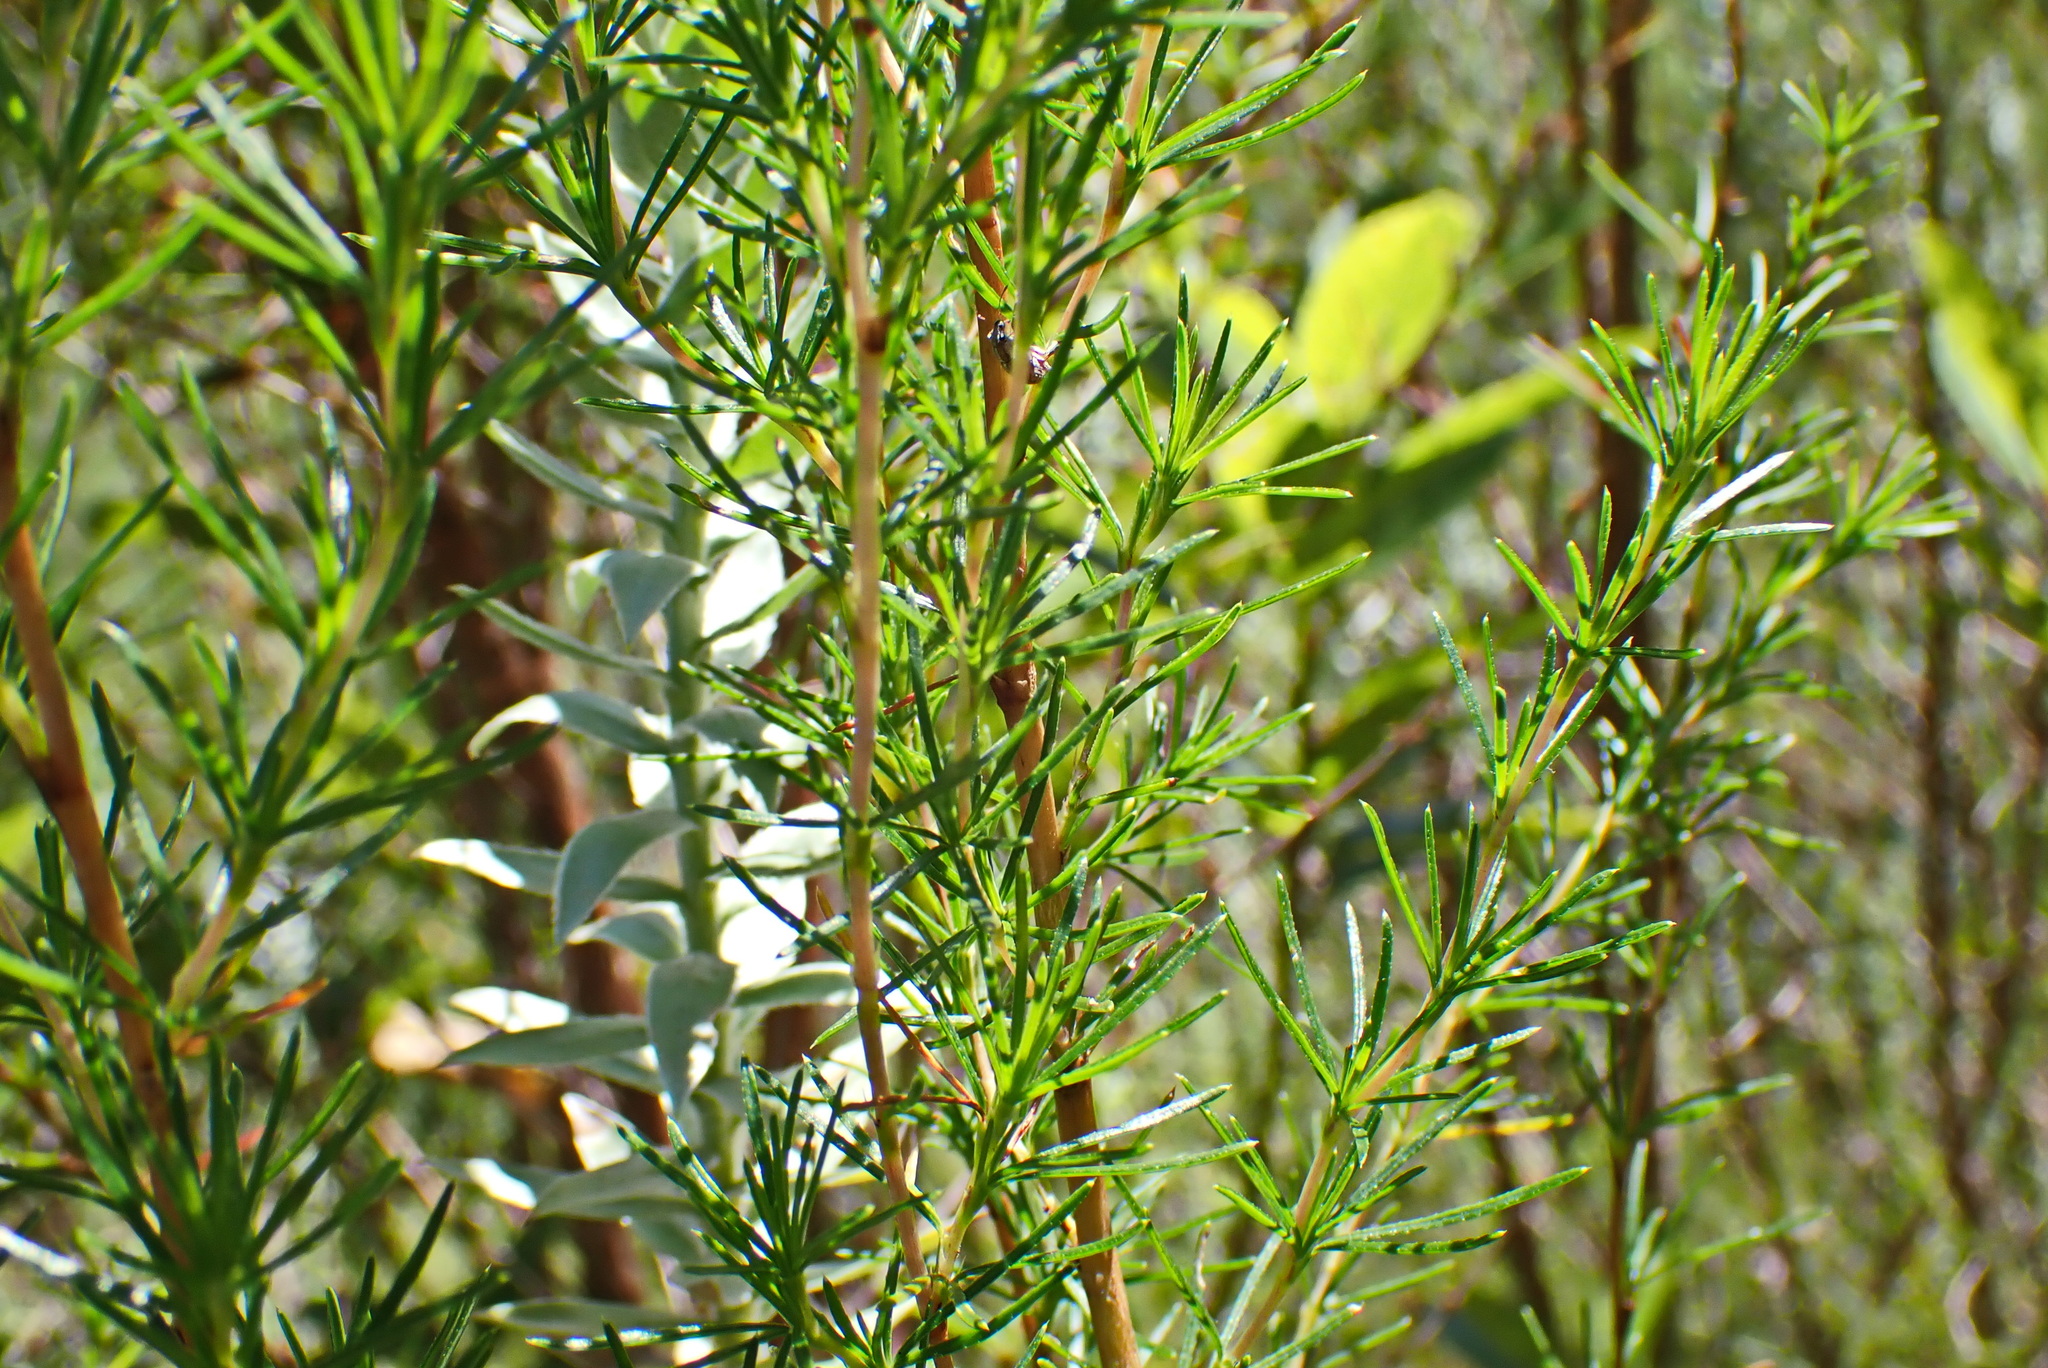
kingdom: Plantae
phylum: Tracheophyta
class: Magnoliopsida
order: Rosales
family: Rosaceae
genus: Cliffortia
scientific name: Cliffortia burchellii
